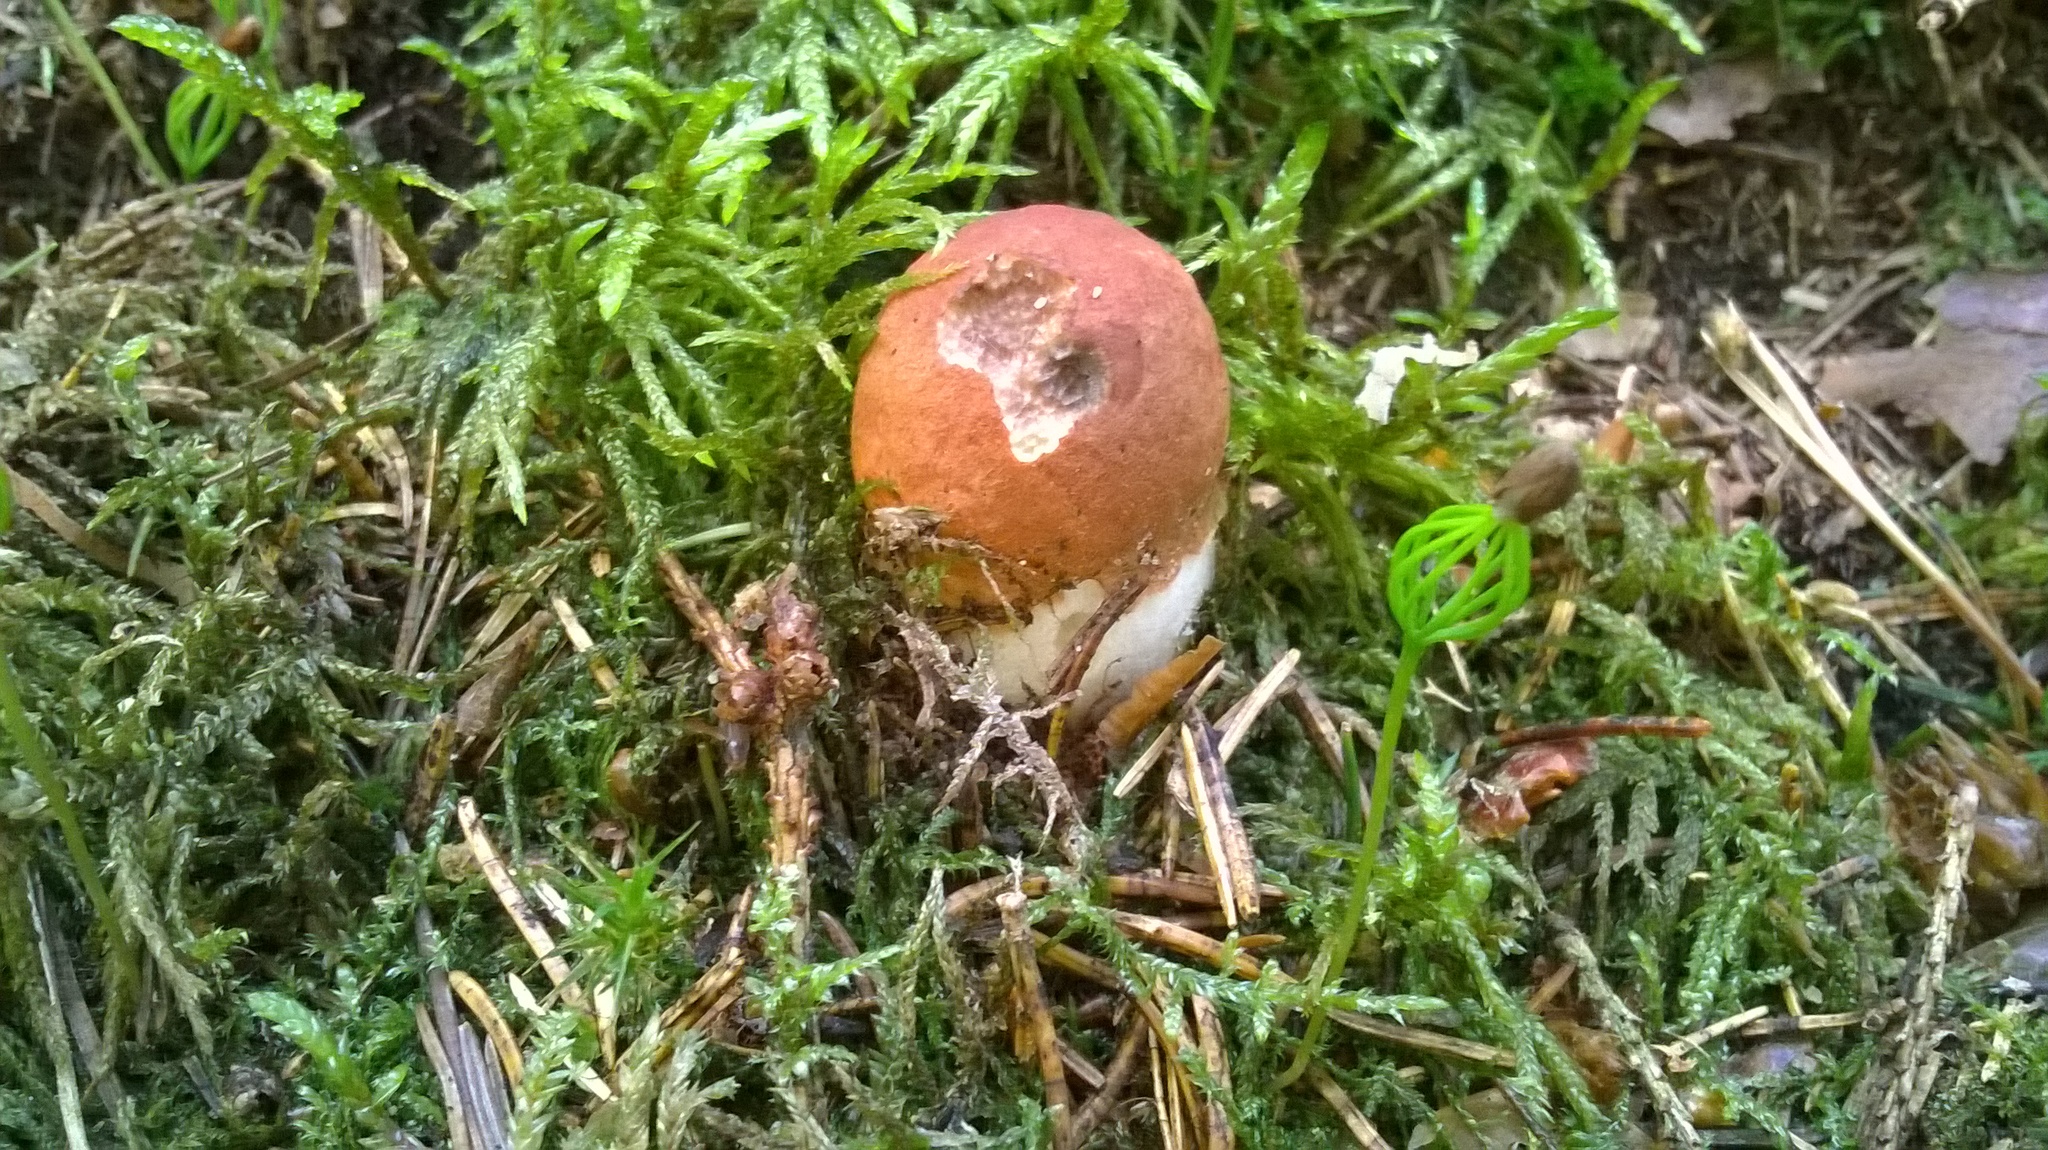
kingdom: Fungi
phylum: Basidiomycota
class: Agaricomycetes
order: Boletales
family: Boletaceae
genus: Leccinum
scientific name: Leccinum versipelle
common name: Orange birch bolete
